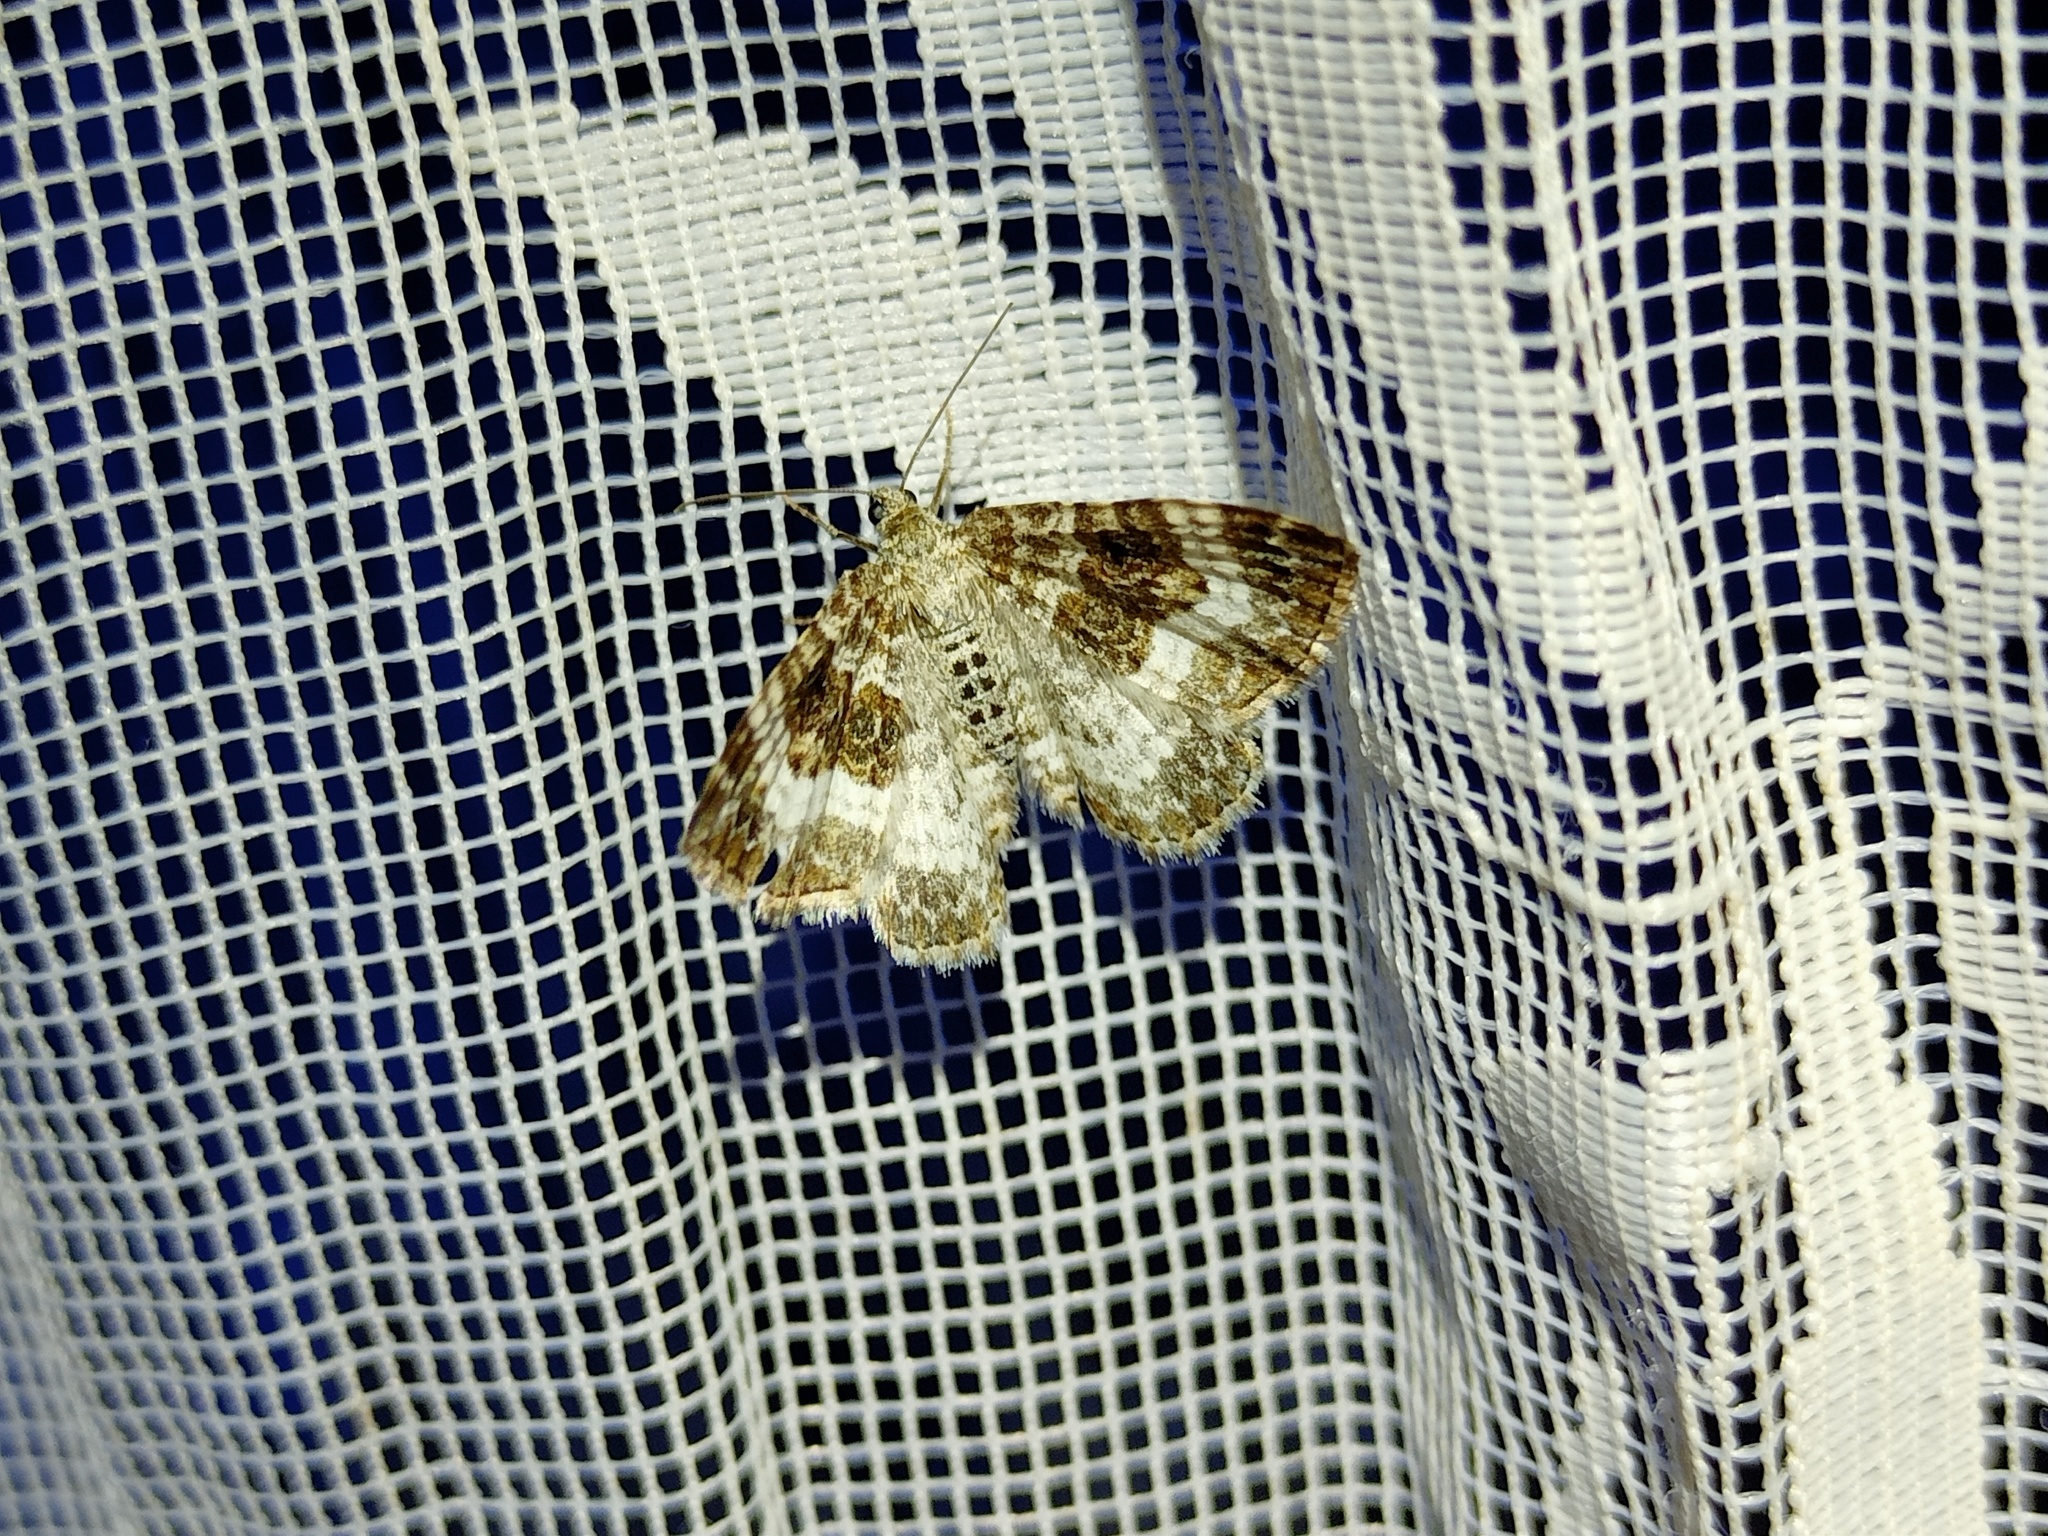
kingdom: Animalia
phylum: Arthropoda
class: Insecta
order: Lepidoptera
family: Geometridae
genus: Epirrhoe
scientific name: Epirrhoe alternata
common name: Common carpet
